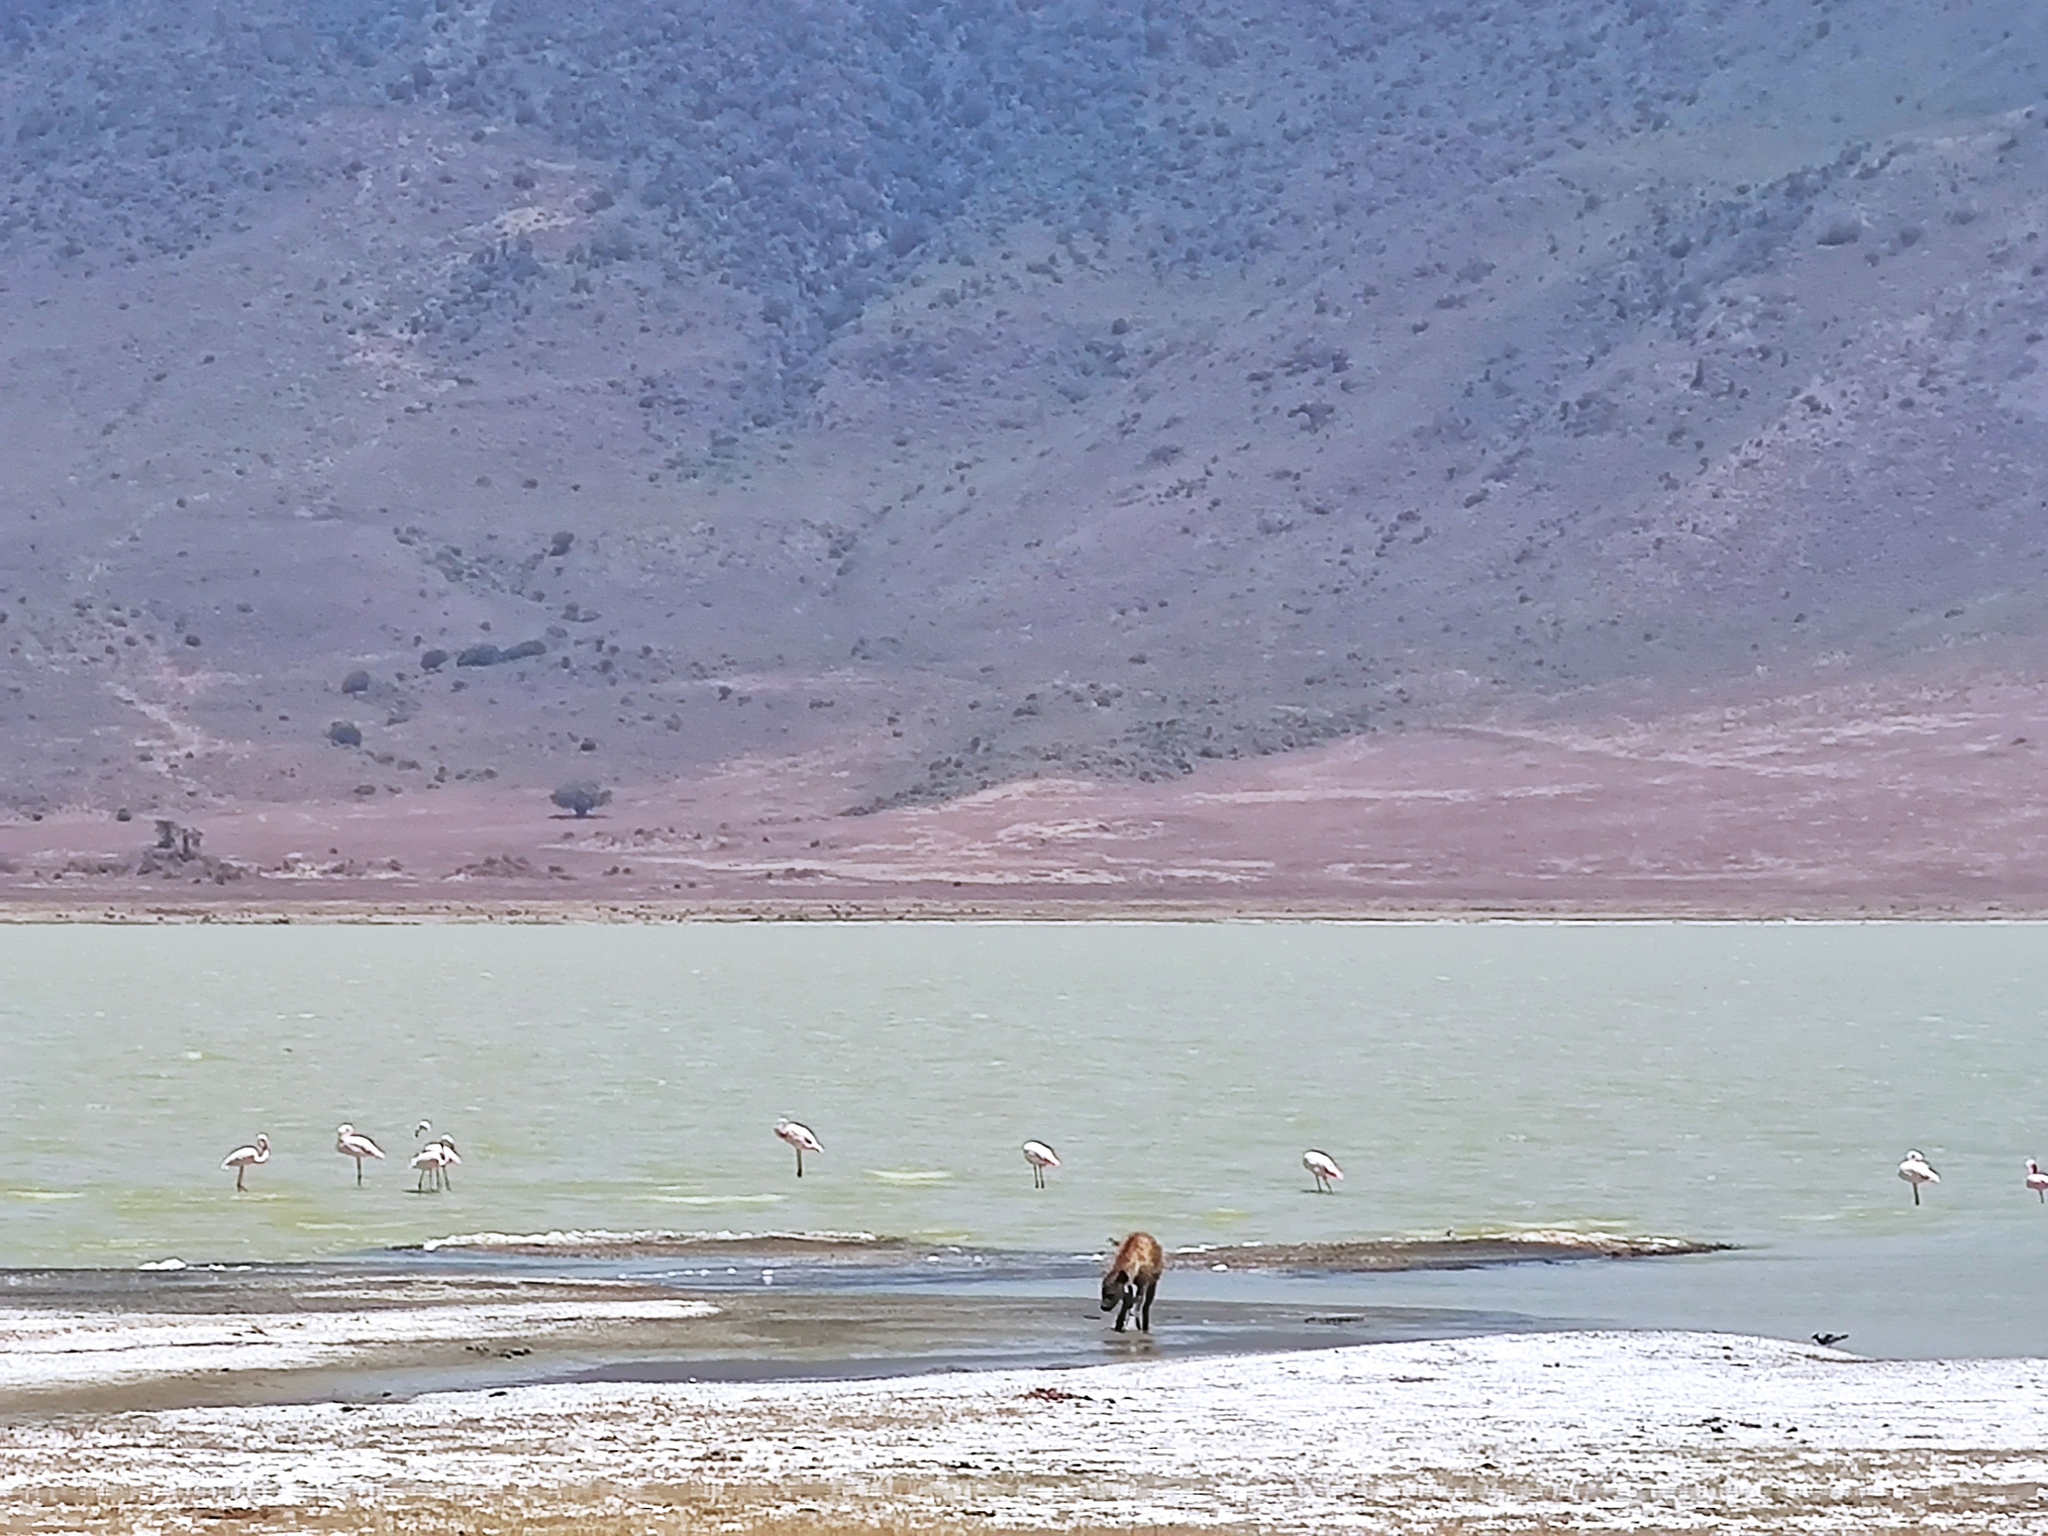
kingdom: Animalia
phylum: Chordata
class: Aves
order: Phoenicopteriformes
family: Phoenicopteridae
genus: Phoenicopterus
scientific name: Phoenicopterus roseus
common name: Greater flamingo
